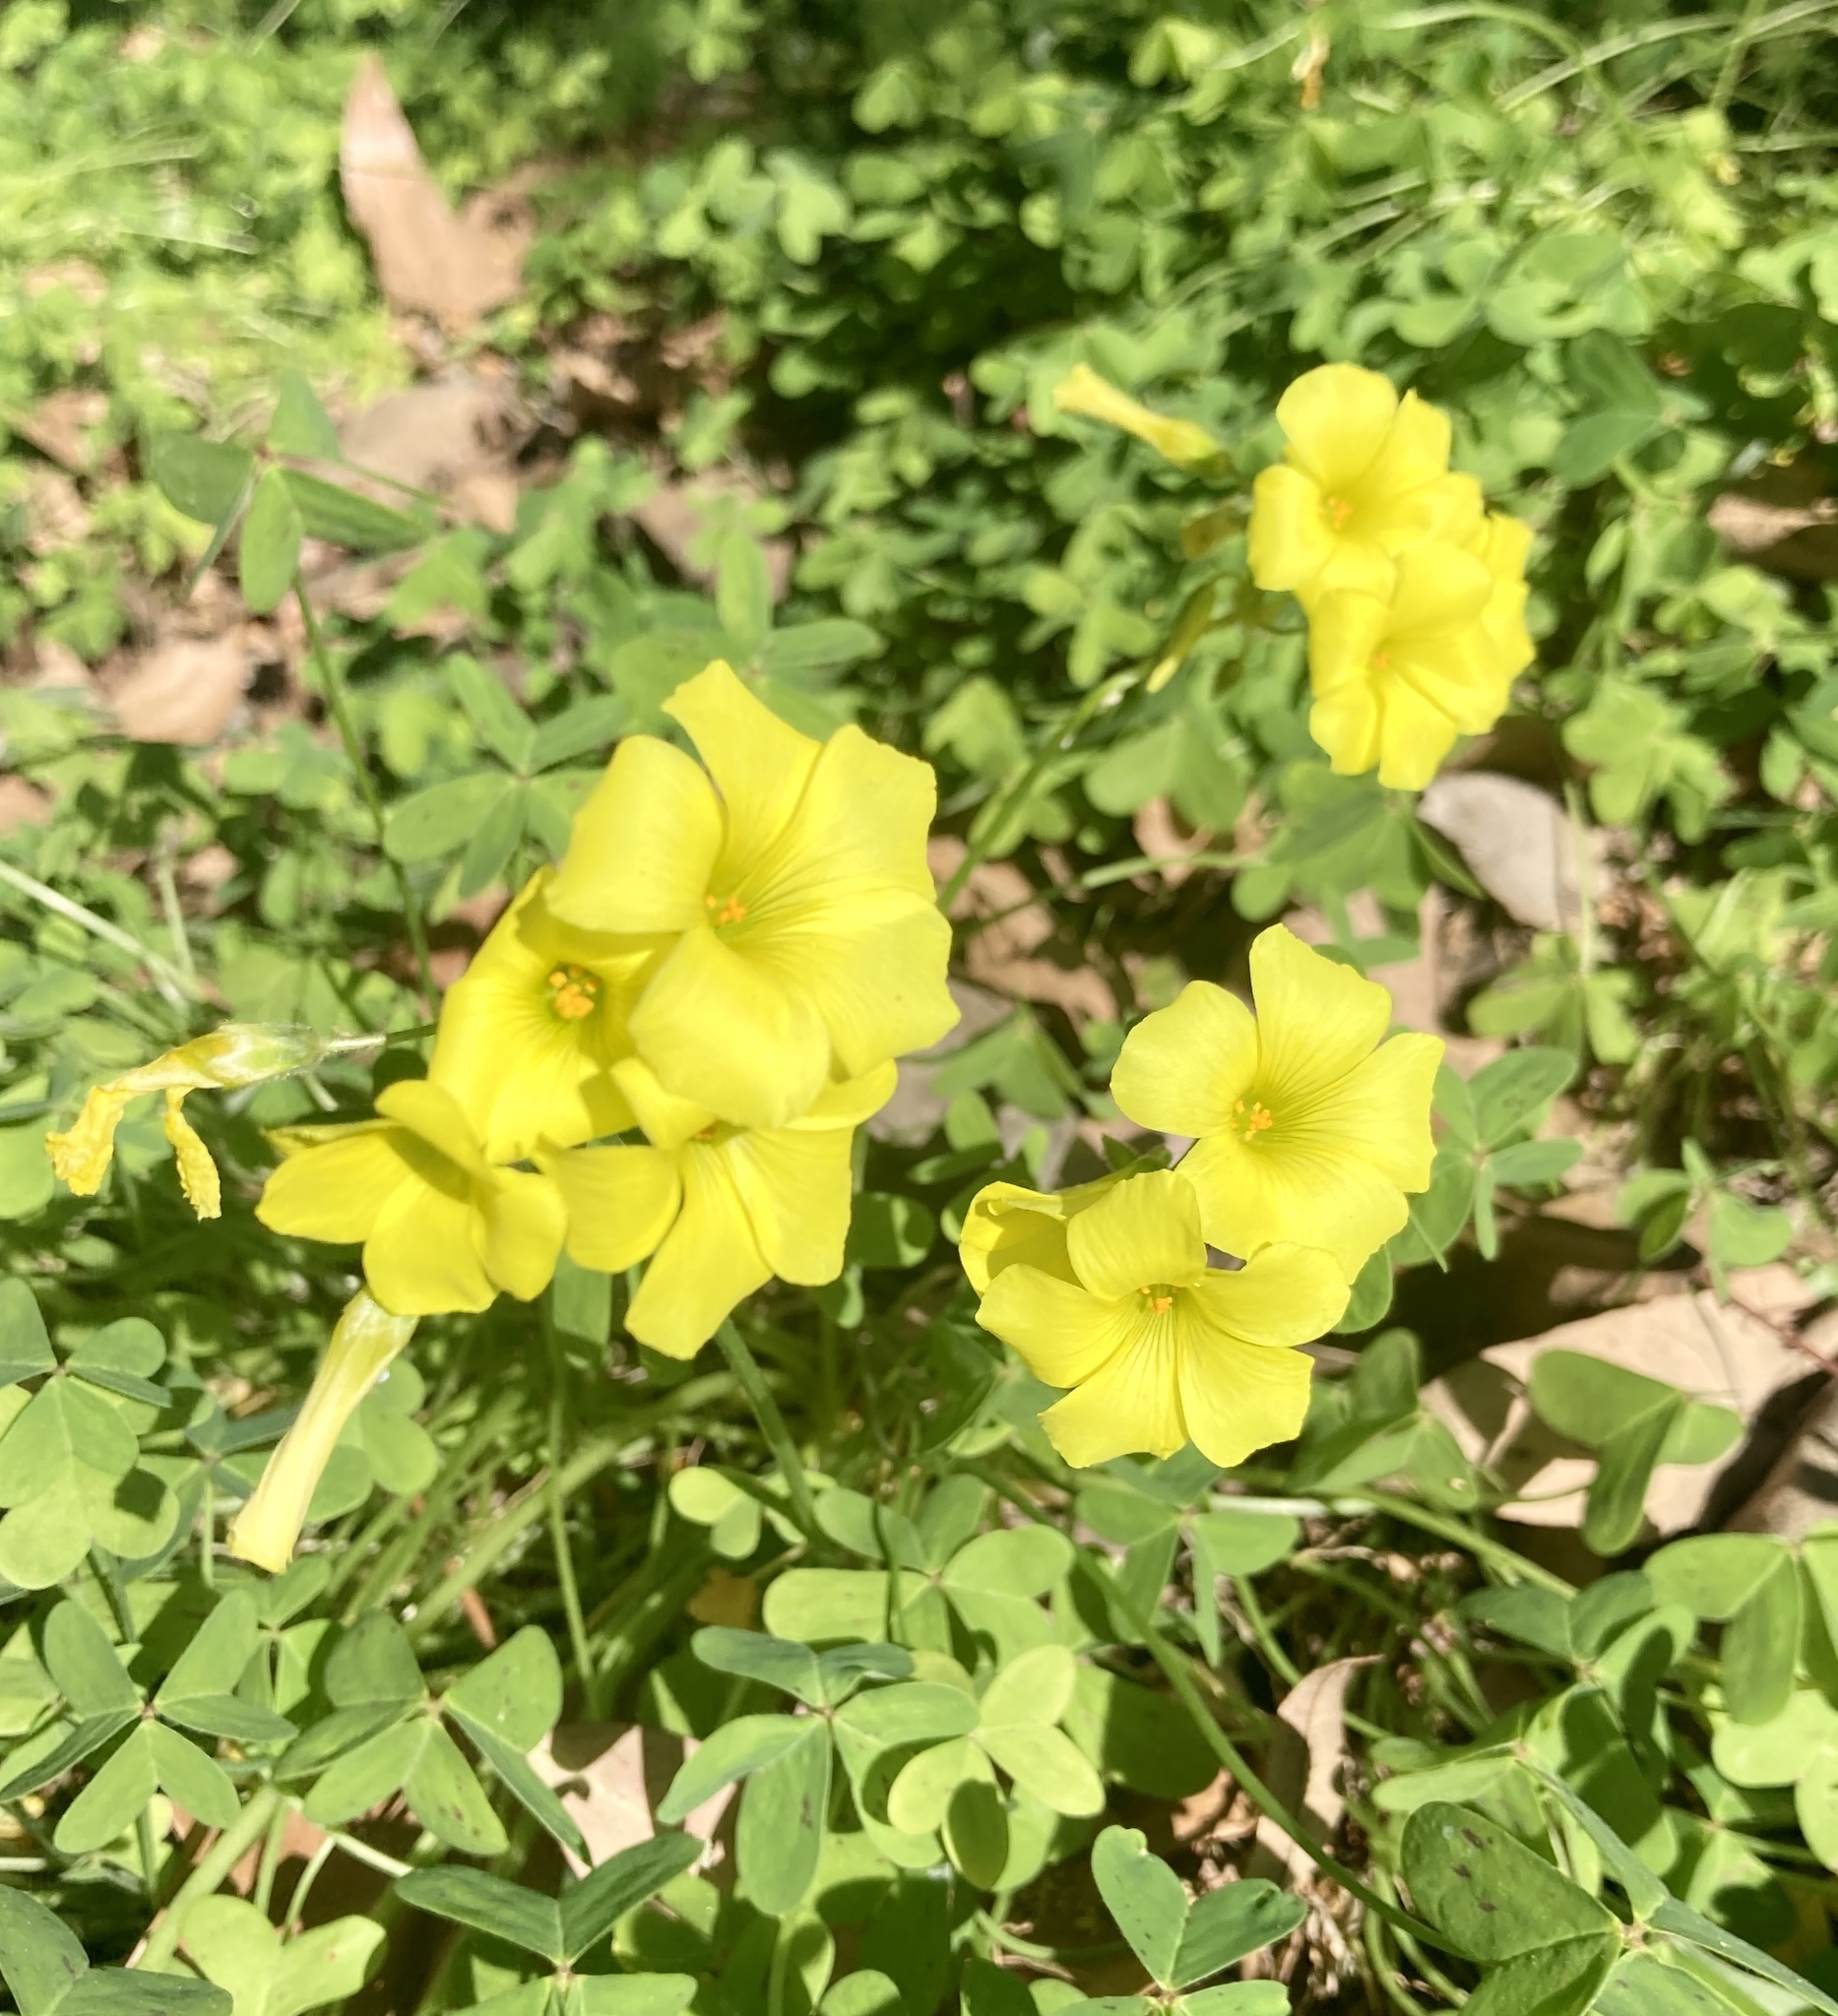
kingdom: Plantae
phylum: Tracheophyta
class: Magnoliopsida
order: Oxalidales
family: Oxalidaceae
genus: Oxalis
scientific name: Oxalis pes-caprae
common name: Bermuda-buttercup
